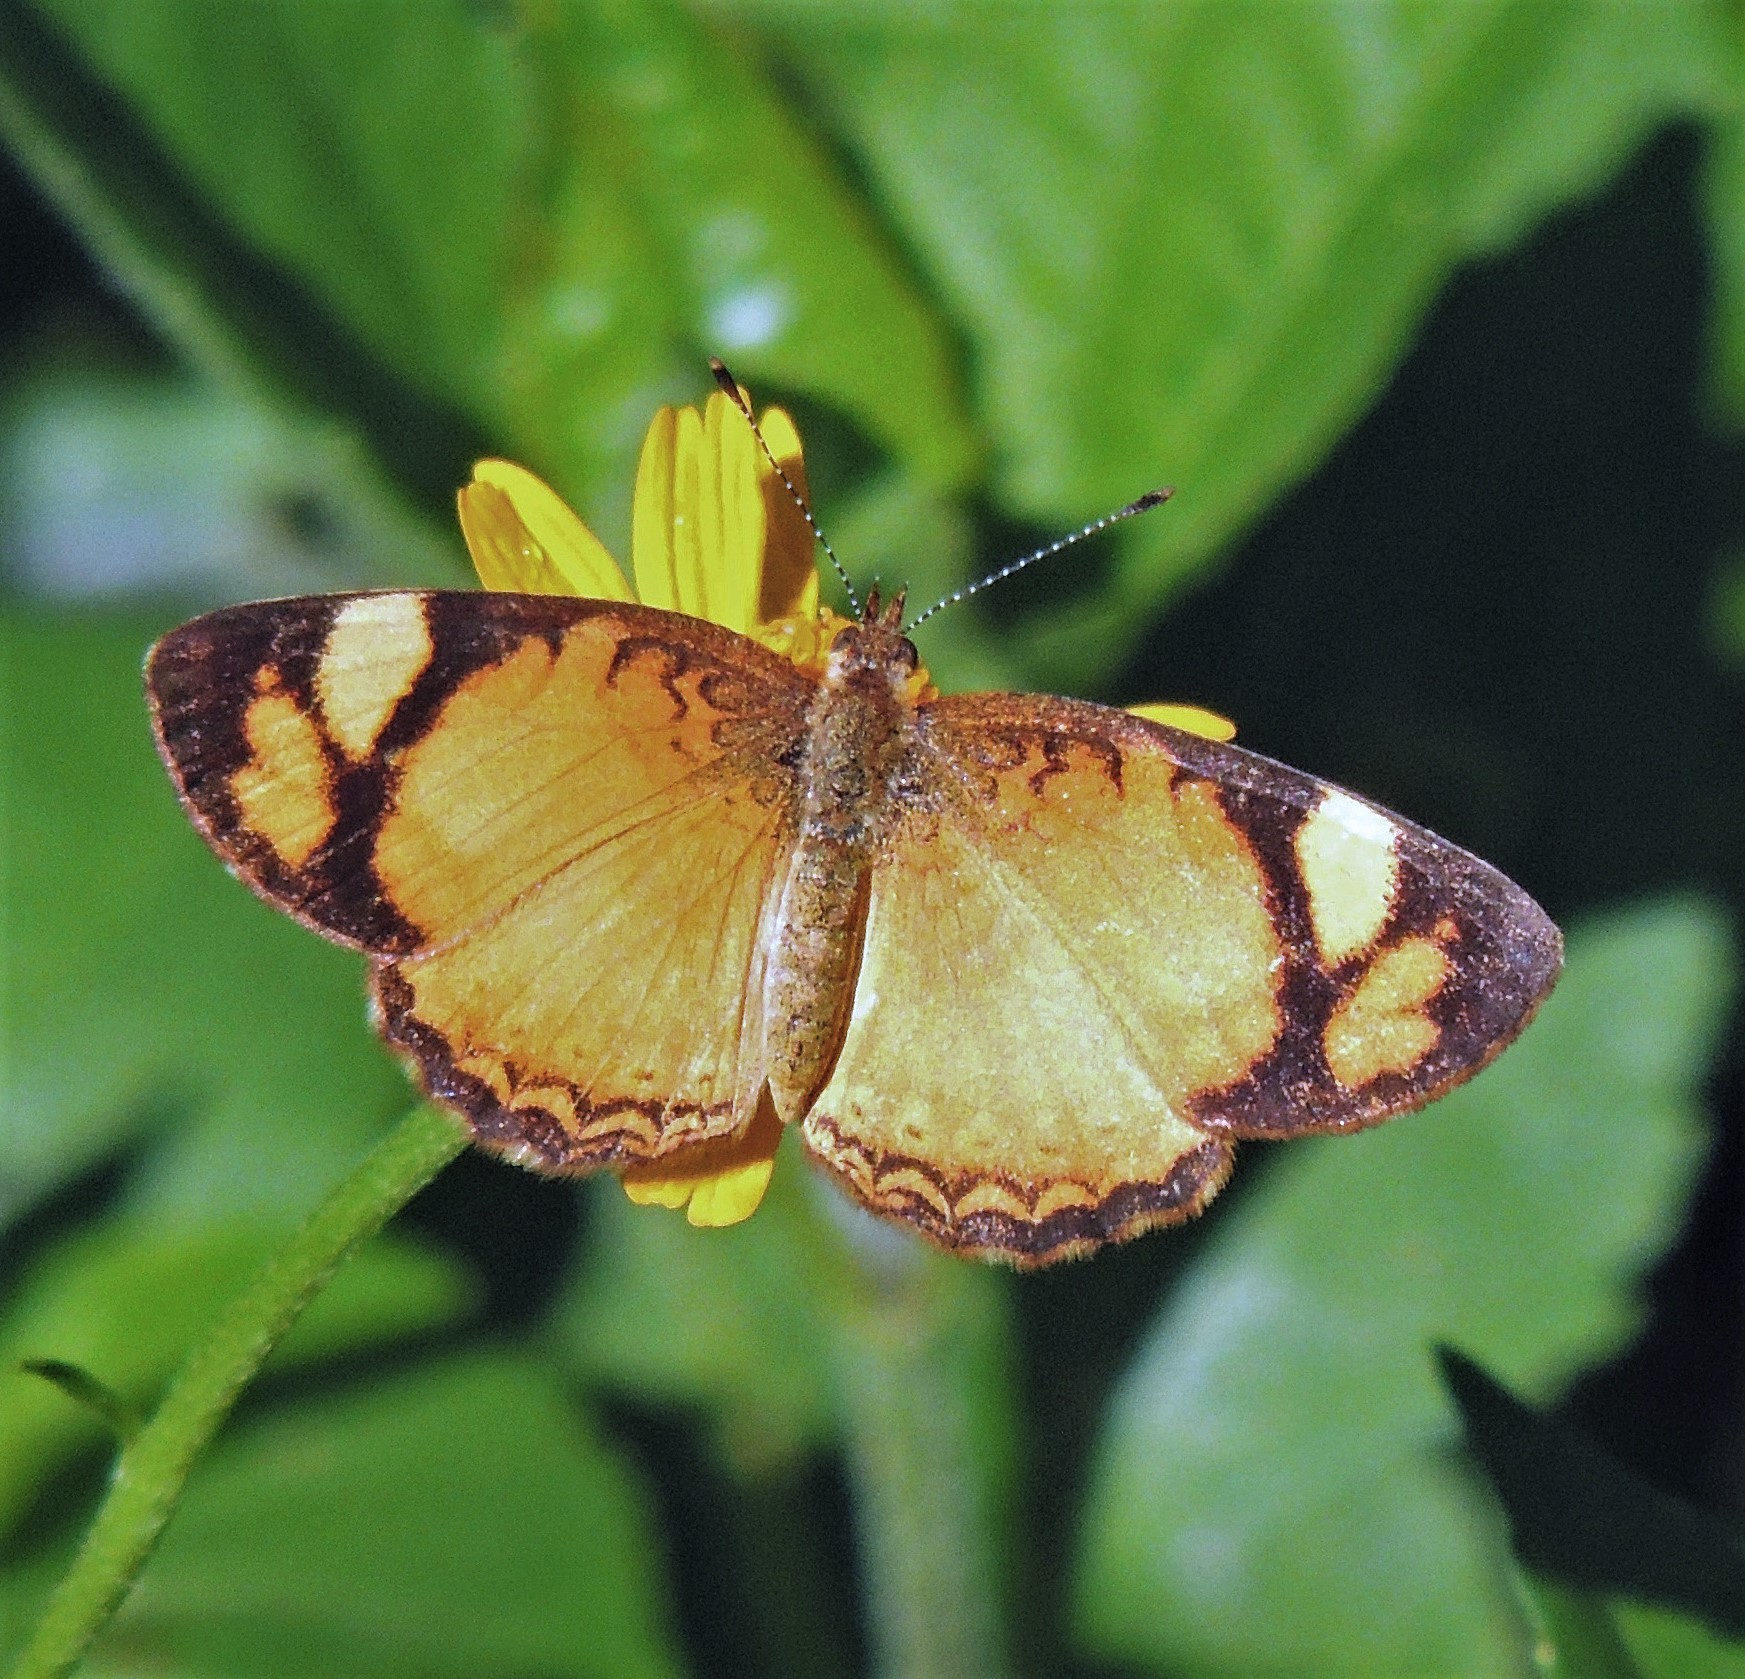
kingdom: Animalia
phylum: Arthropoda
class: Insecta
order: Lepidoptera
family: Nymphalidae
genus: Tegosa
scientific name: Tegosa claudina
